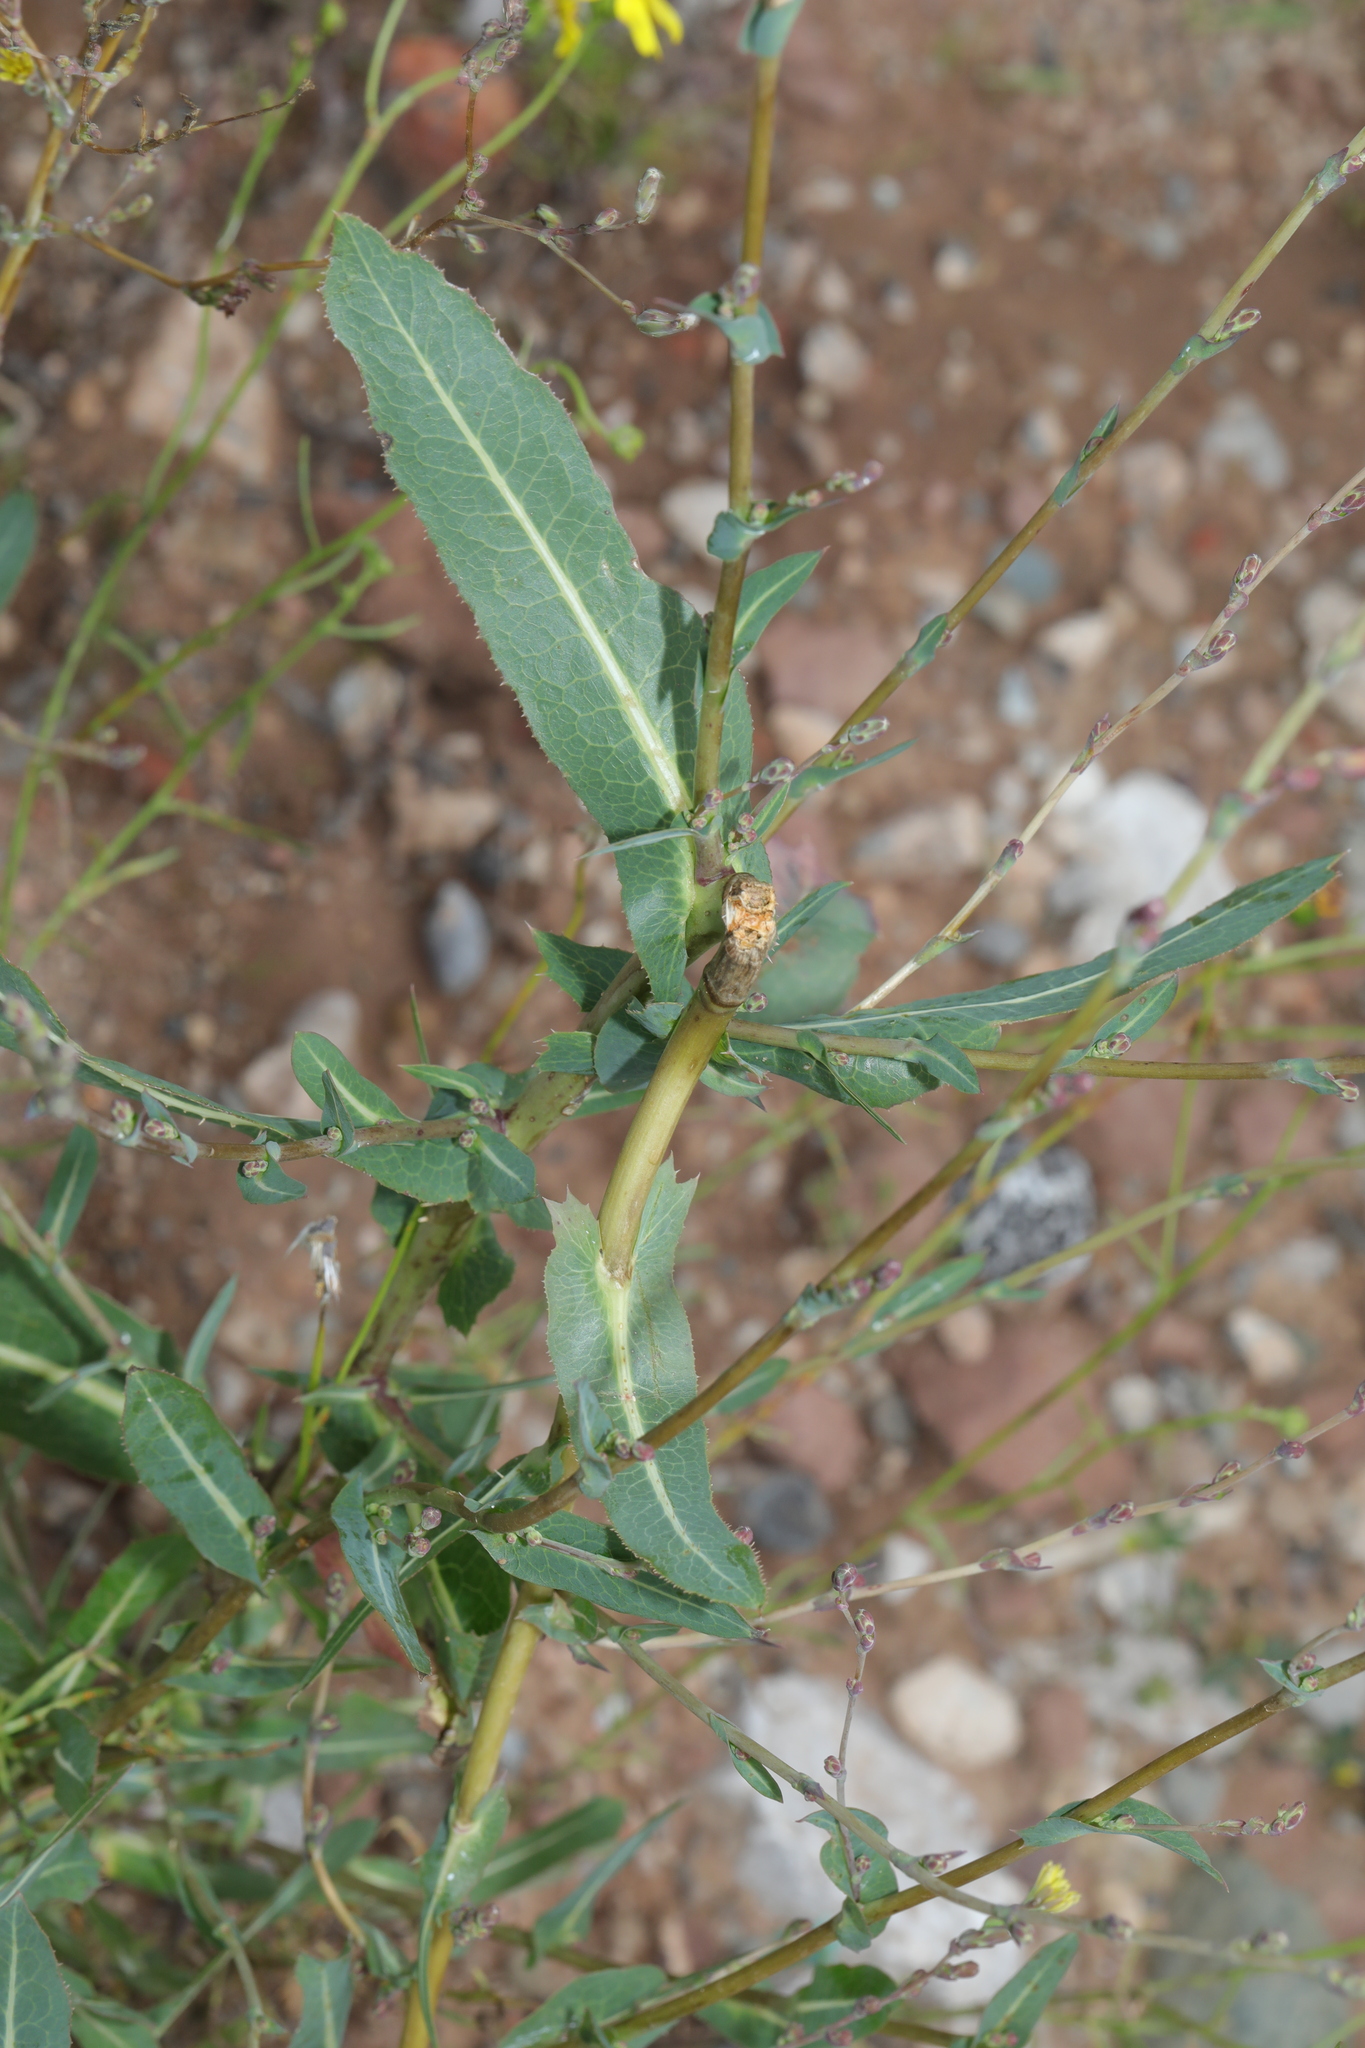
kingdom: Plantae
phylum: Tracheophyta
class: Magnoliopsida
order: Asterales
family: Asteraceae
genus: Lactuca
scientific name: Lactuca serriola
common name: Prickly lettuce
